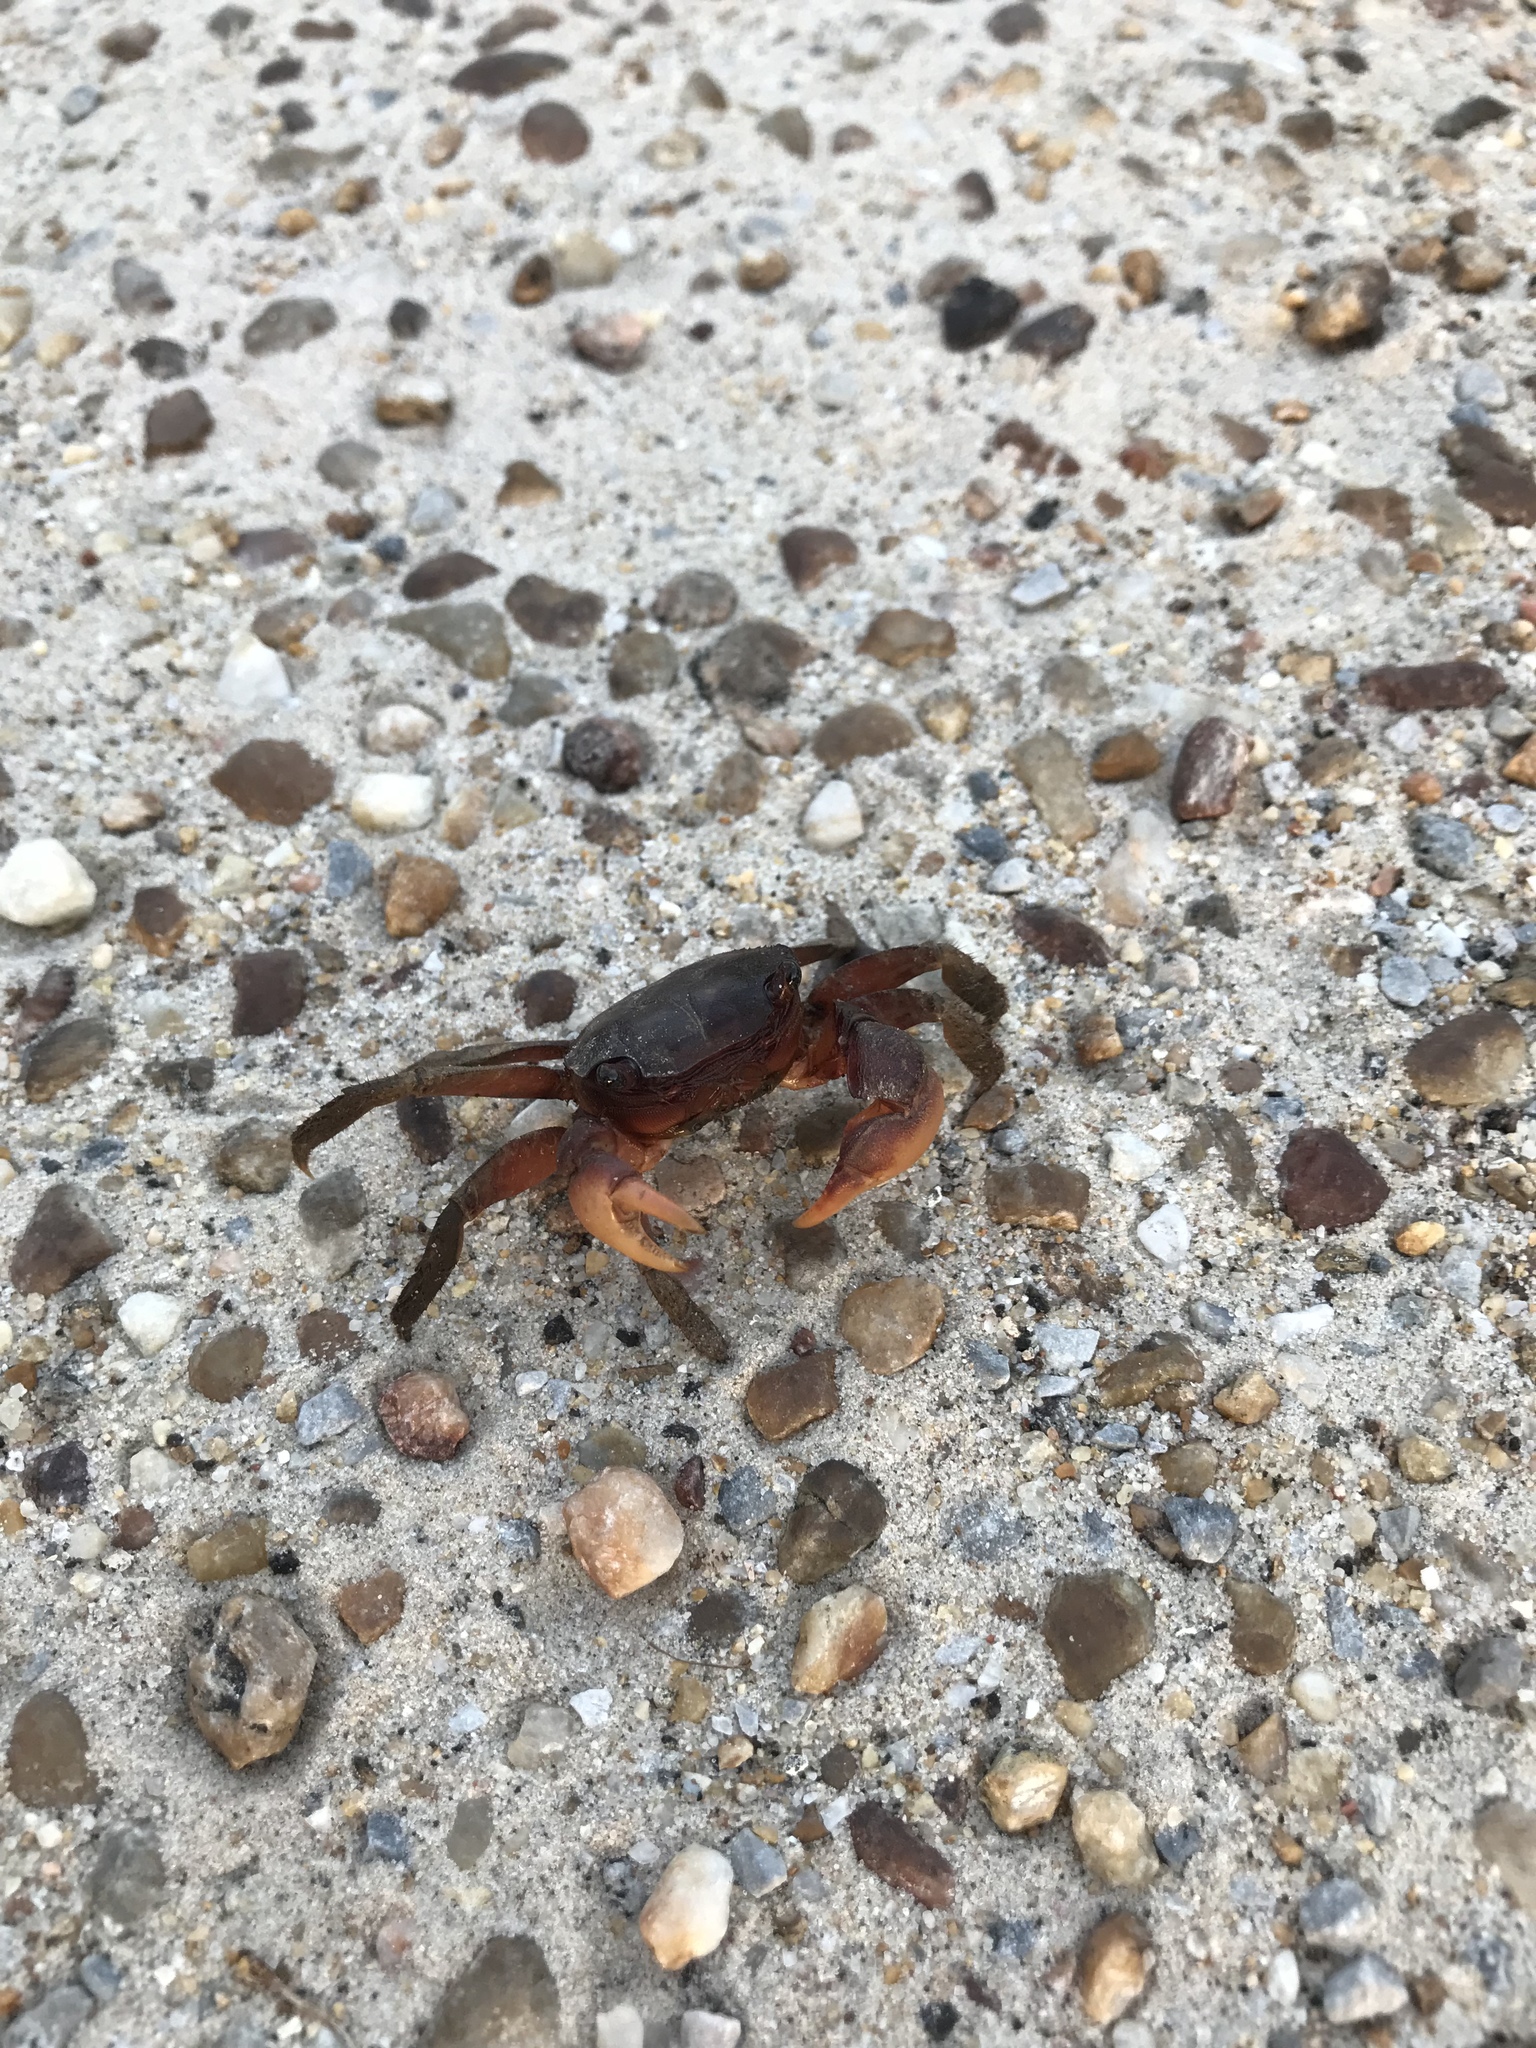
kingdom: Animalia
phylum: Arthropoda
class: Malacostraca
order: Decapoda
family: Sesarmidae
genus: Sesarma
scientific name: Sesarma reticulatum
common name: Heavy marsh crab
